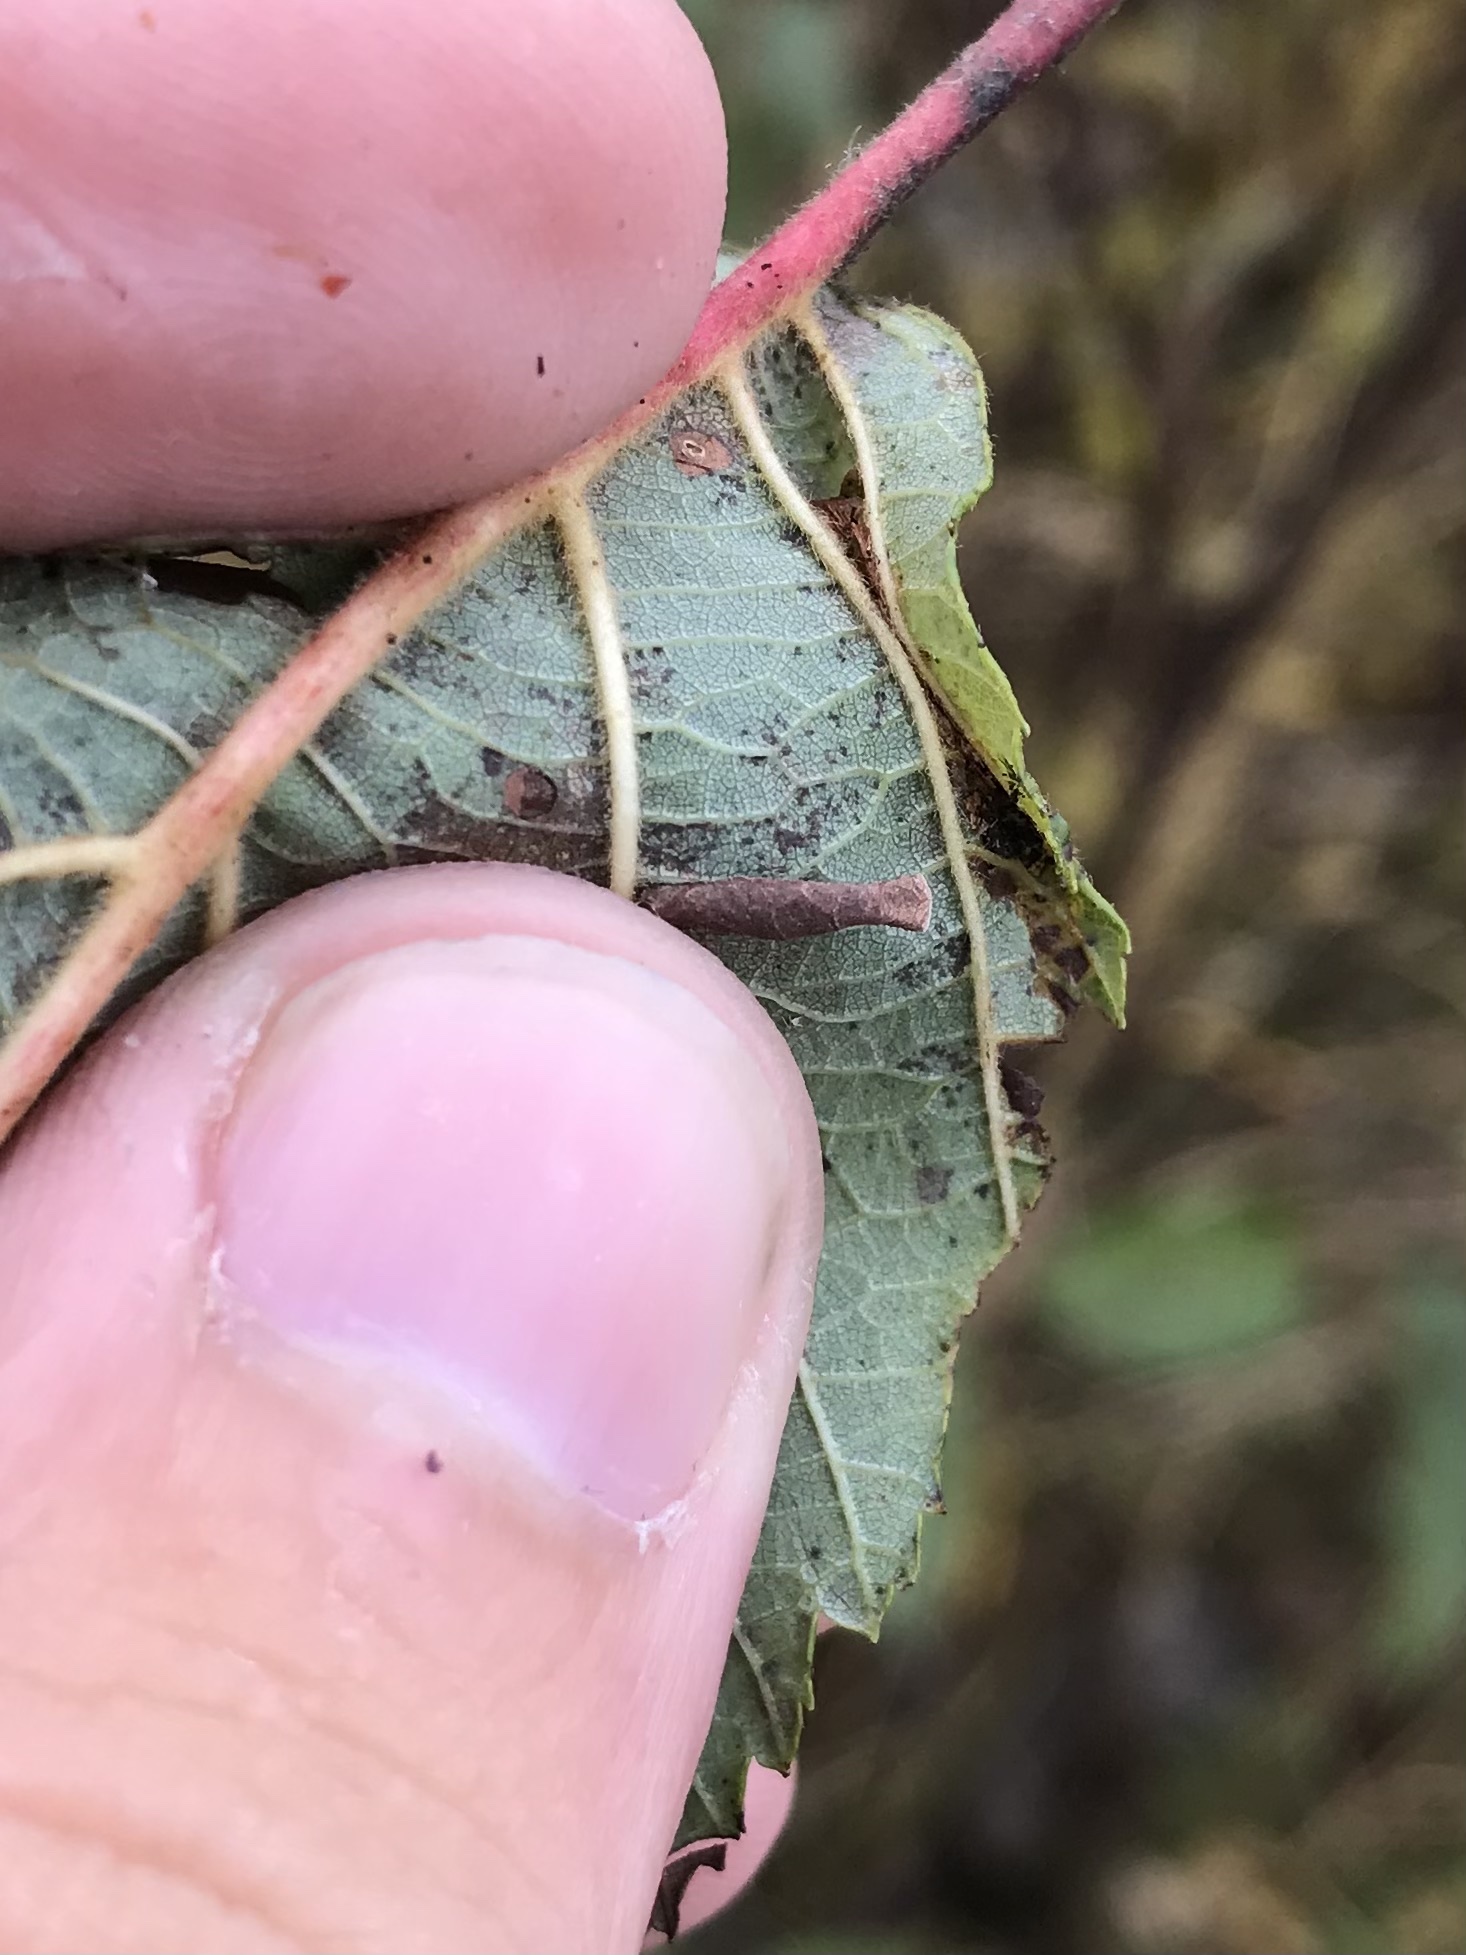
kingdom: Animalia
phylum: Arthropoda
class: Insecta
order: Lepidoptera
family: Coleophoridae
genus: Coleophora
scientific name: Coleophora alniella
